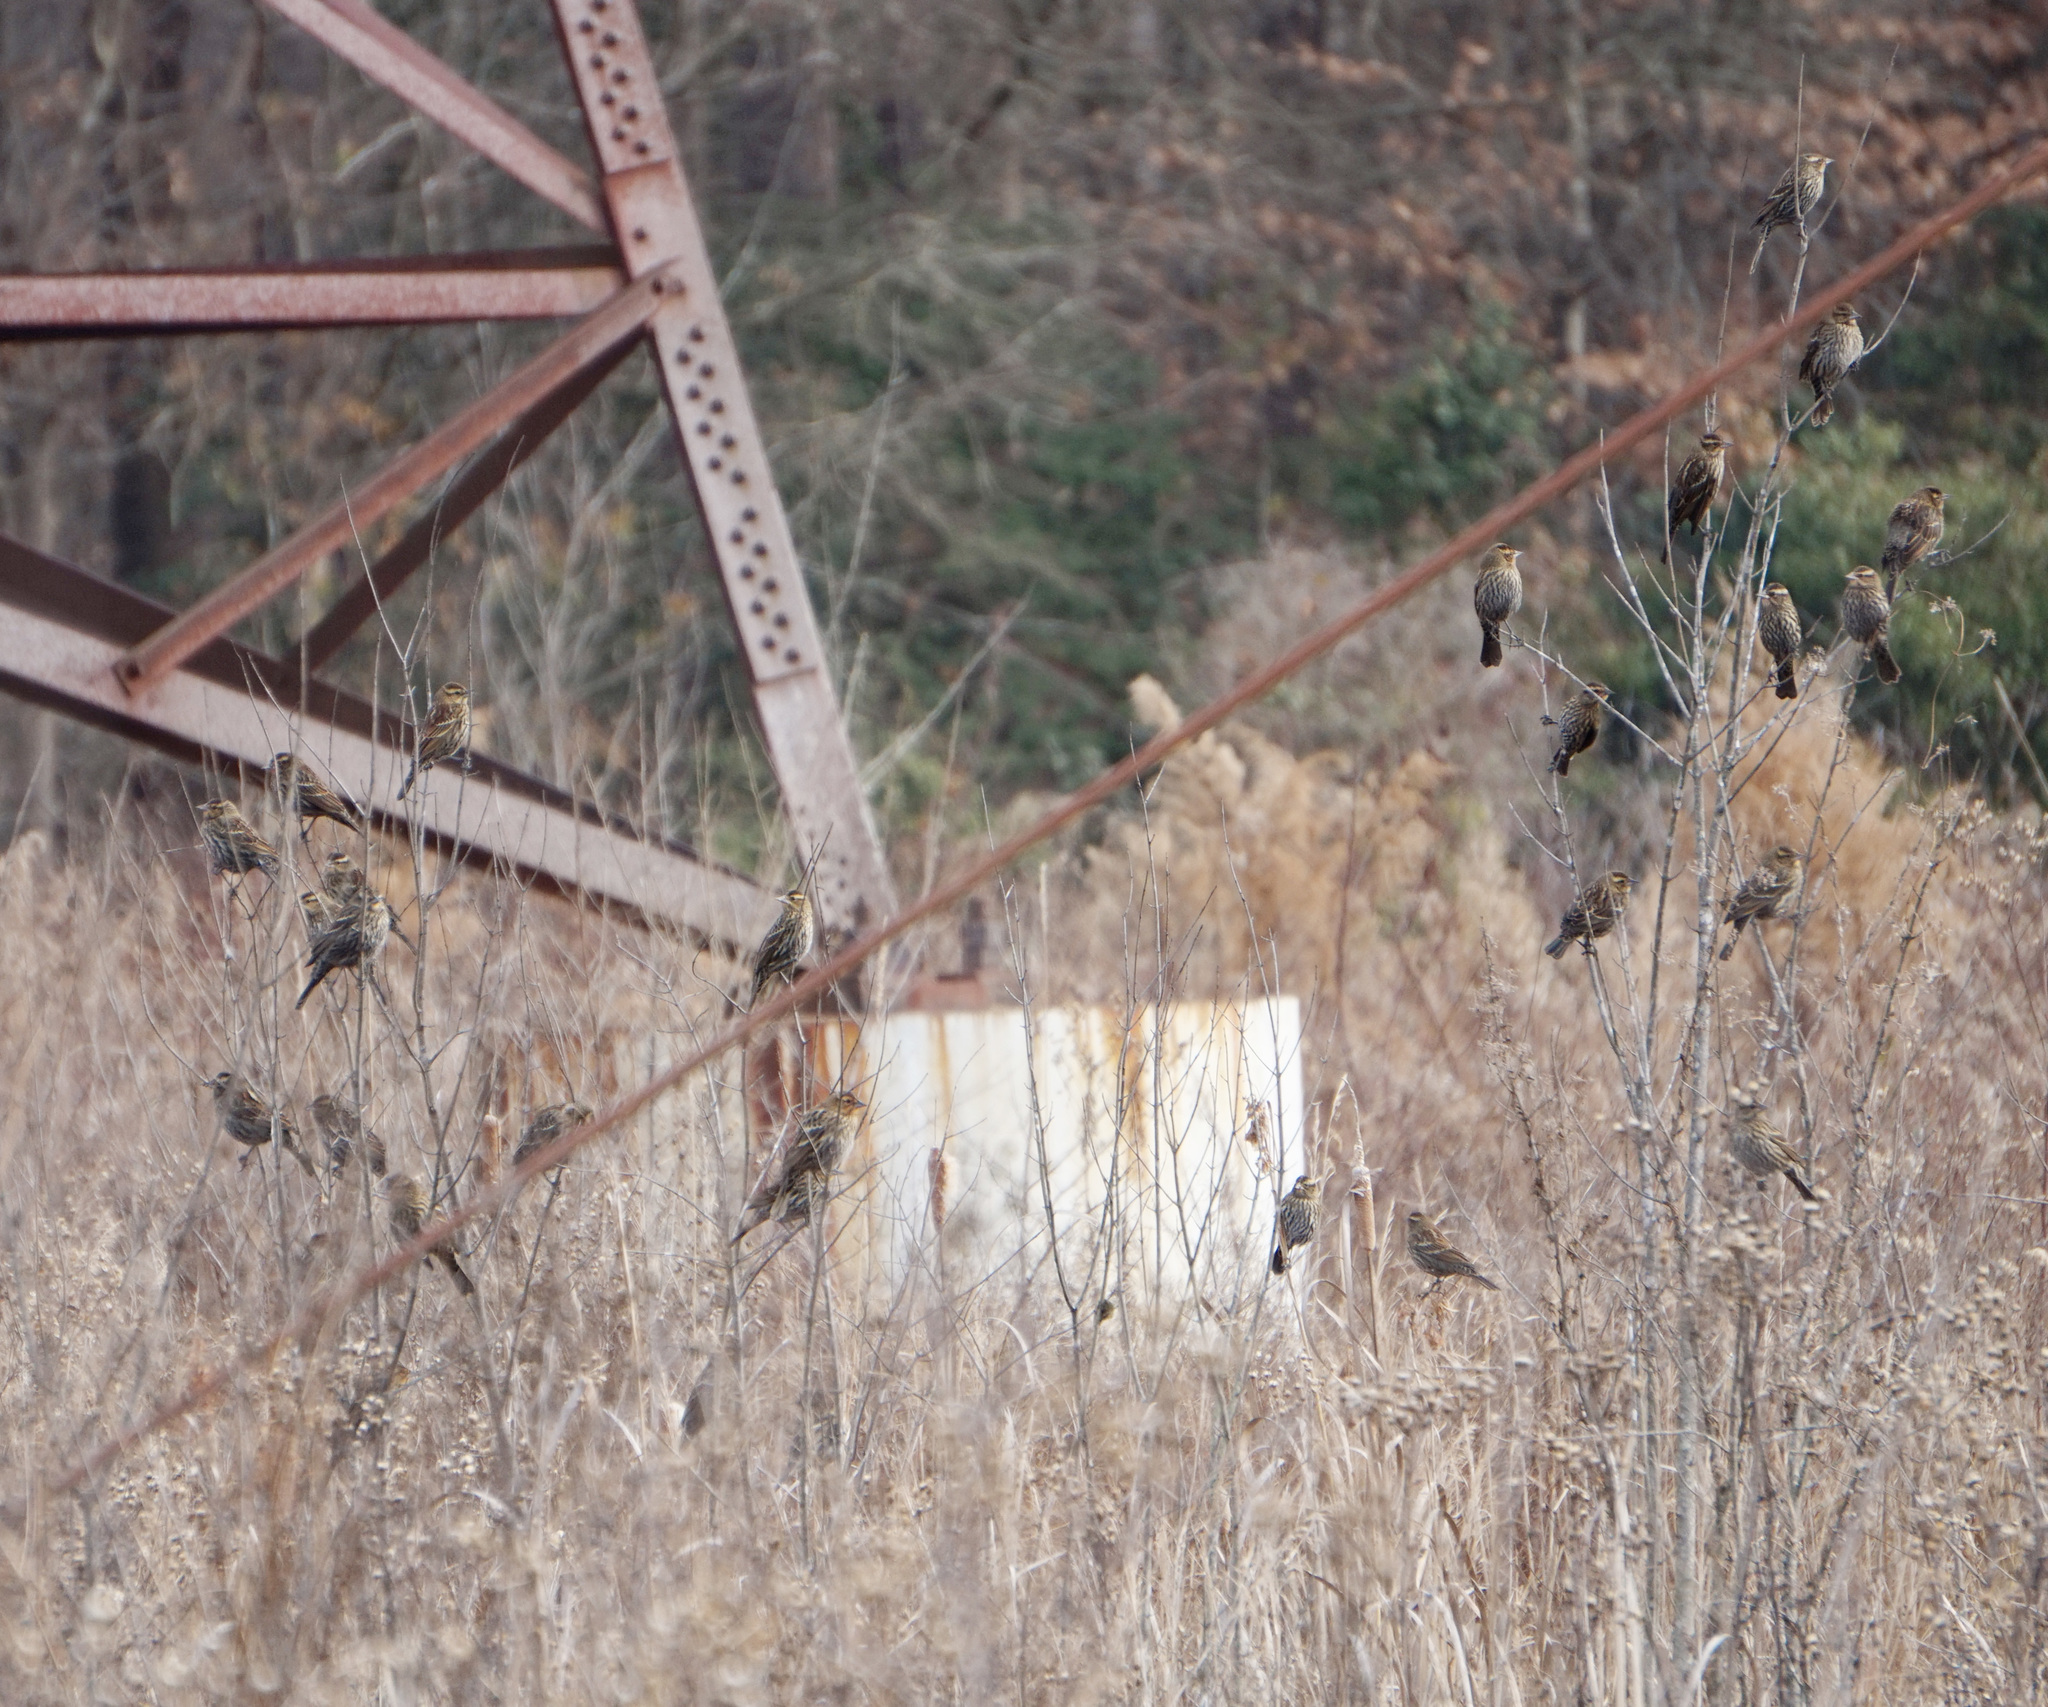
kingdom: Animalia
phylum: Chordata
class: Aves
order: Passeriformes
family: Icteridae
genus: Agelaius
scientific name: Agelaius phoeniceus
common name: Red-winged blackbird
